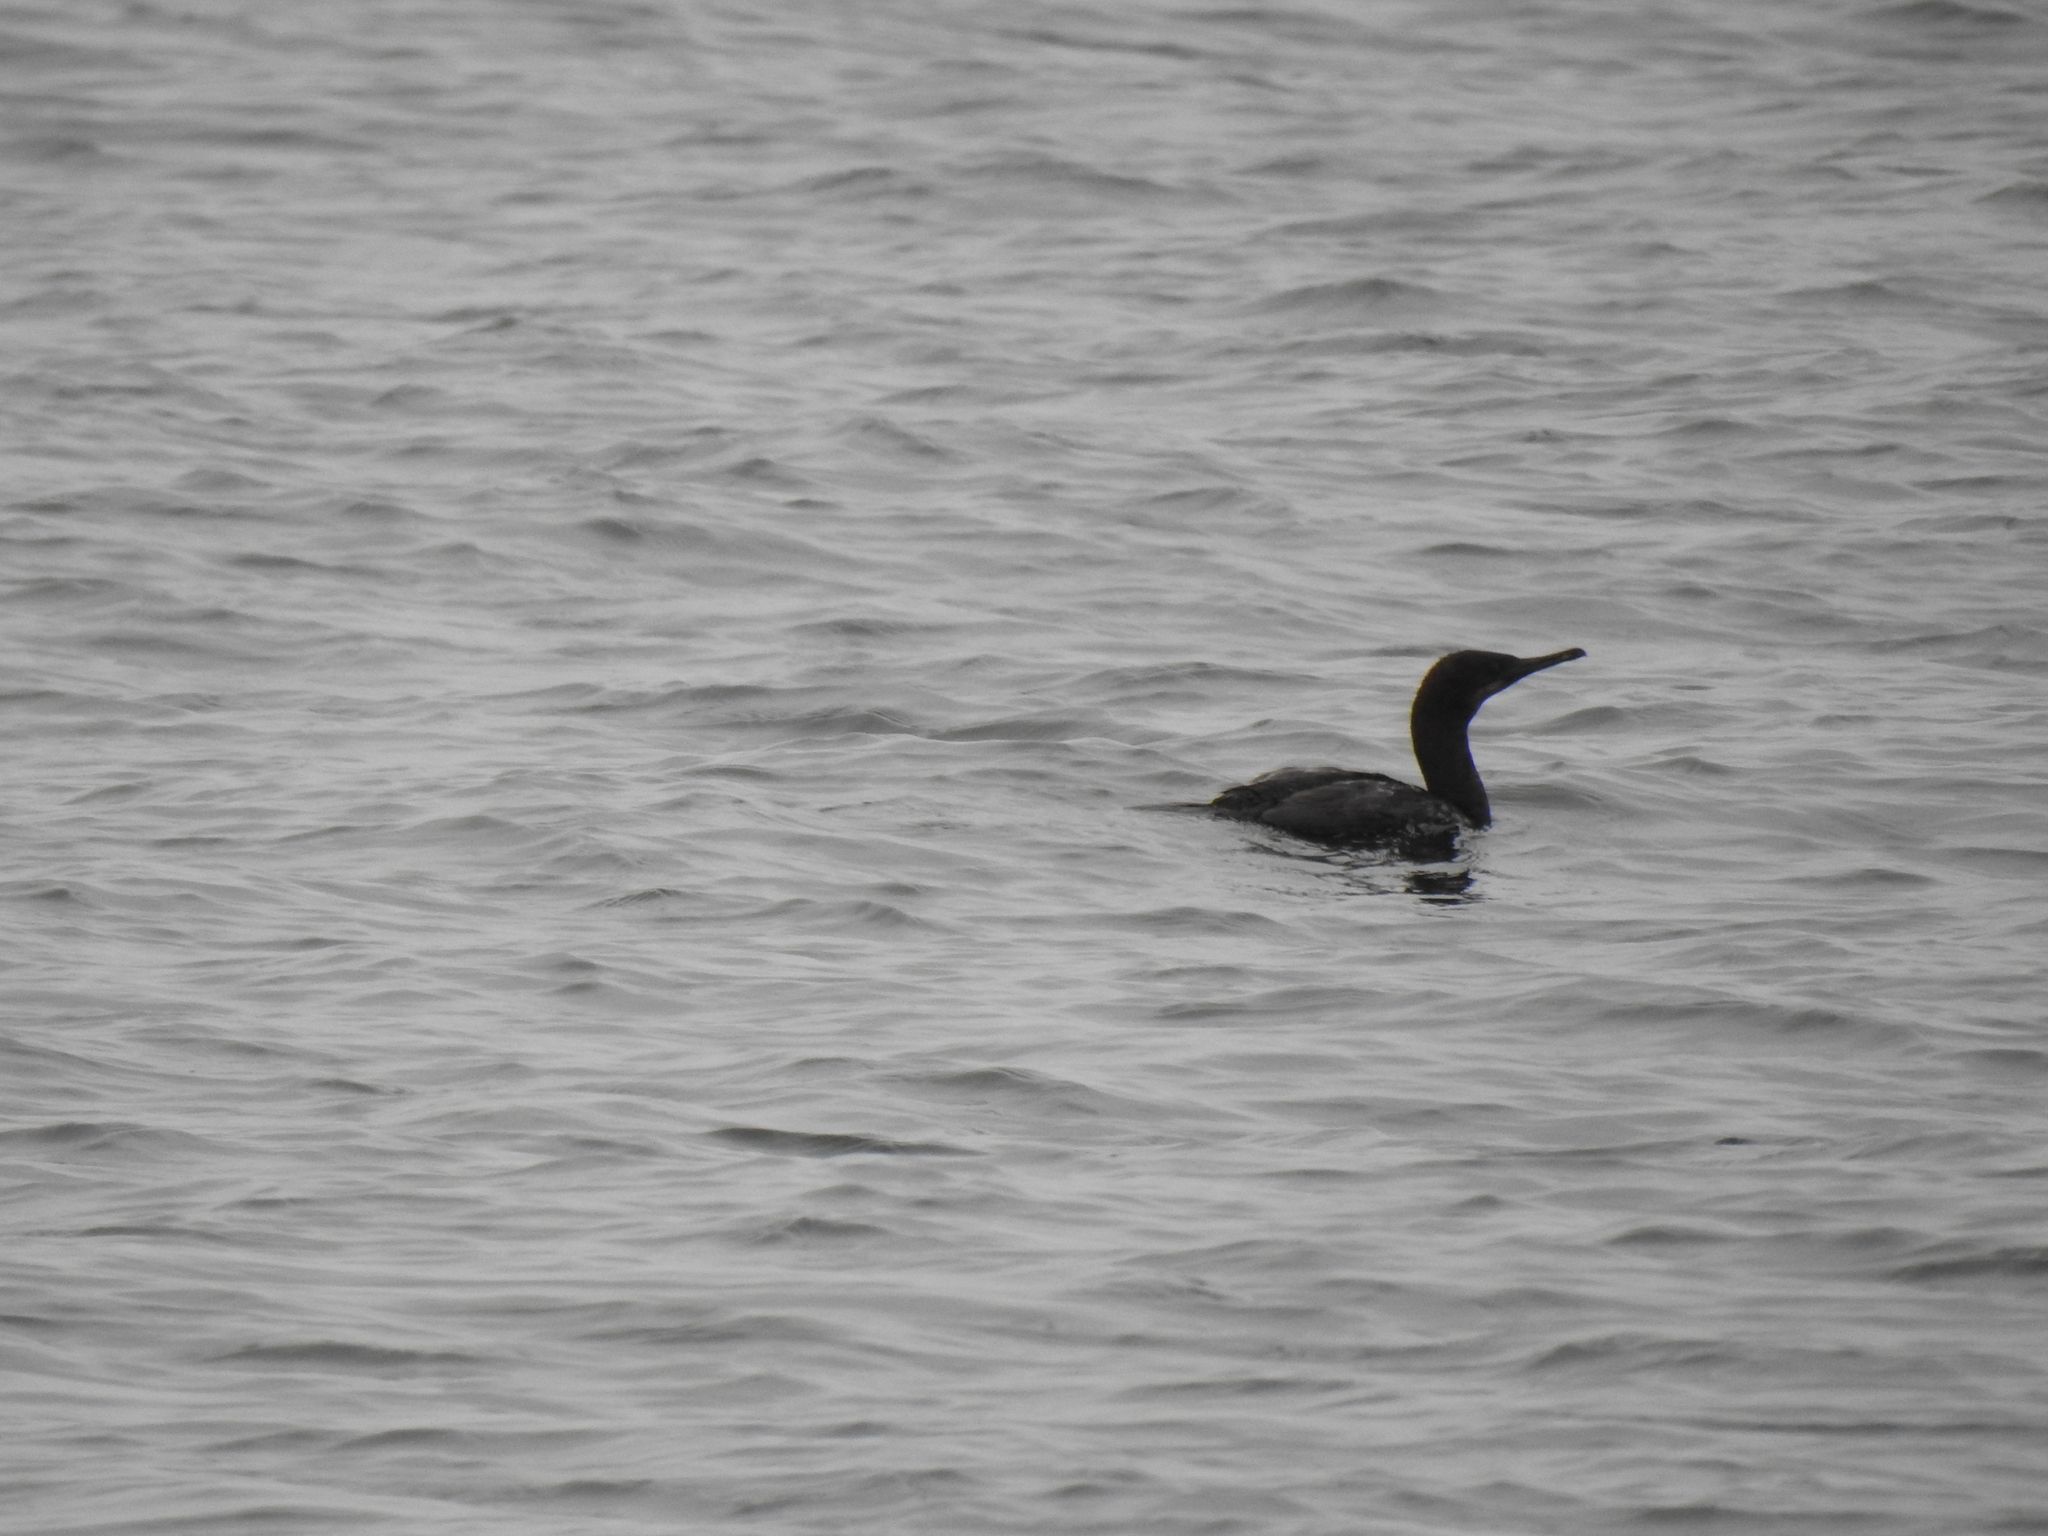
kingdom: Animalia
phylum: Chordata
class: Aves
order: Suliformes
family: Phalacrocoracidae
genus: Urile
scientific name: Urile penicillatus
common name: Brandt's cormorant
